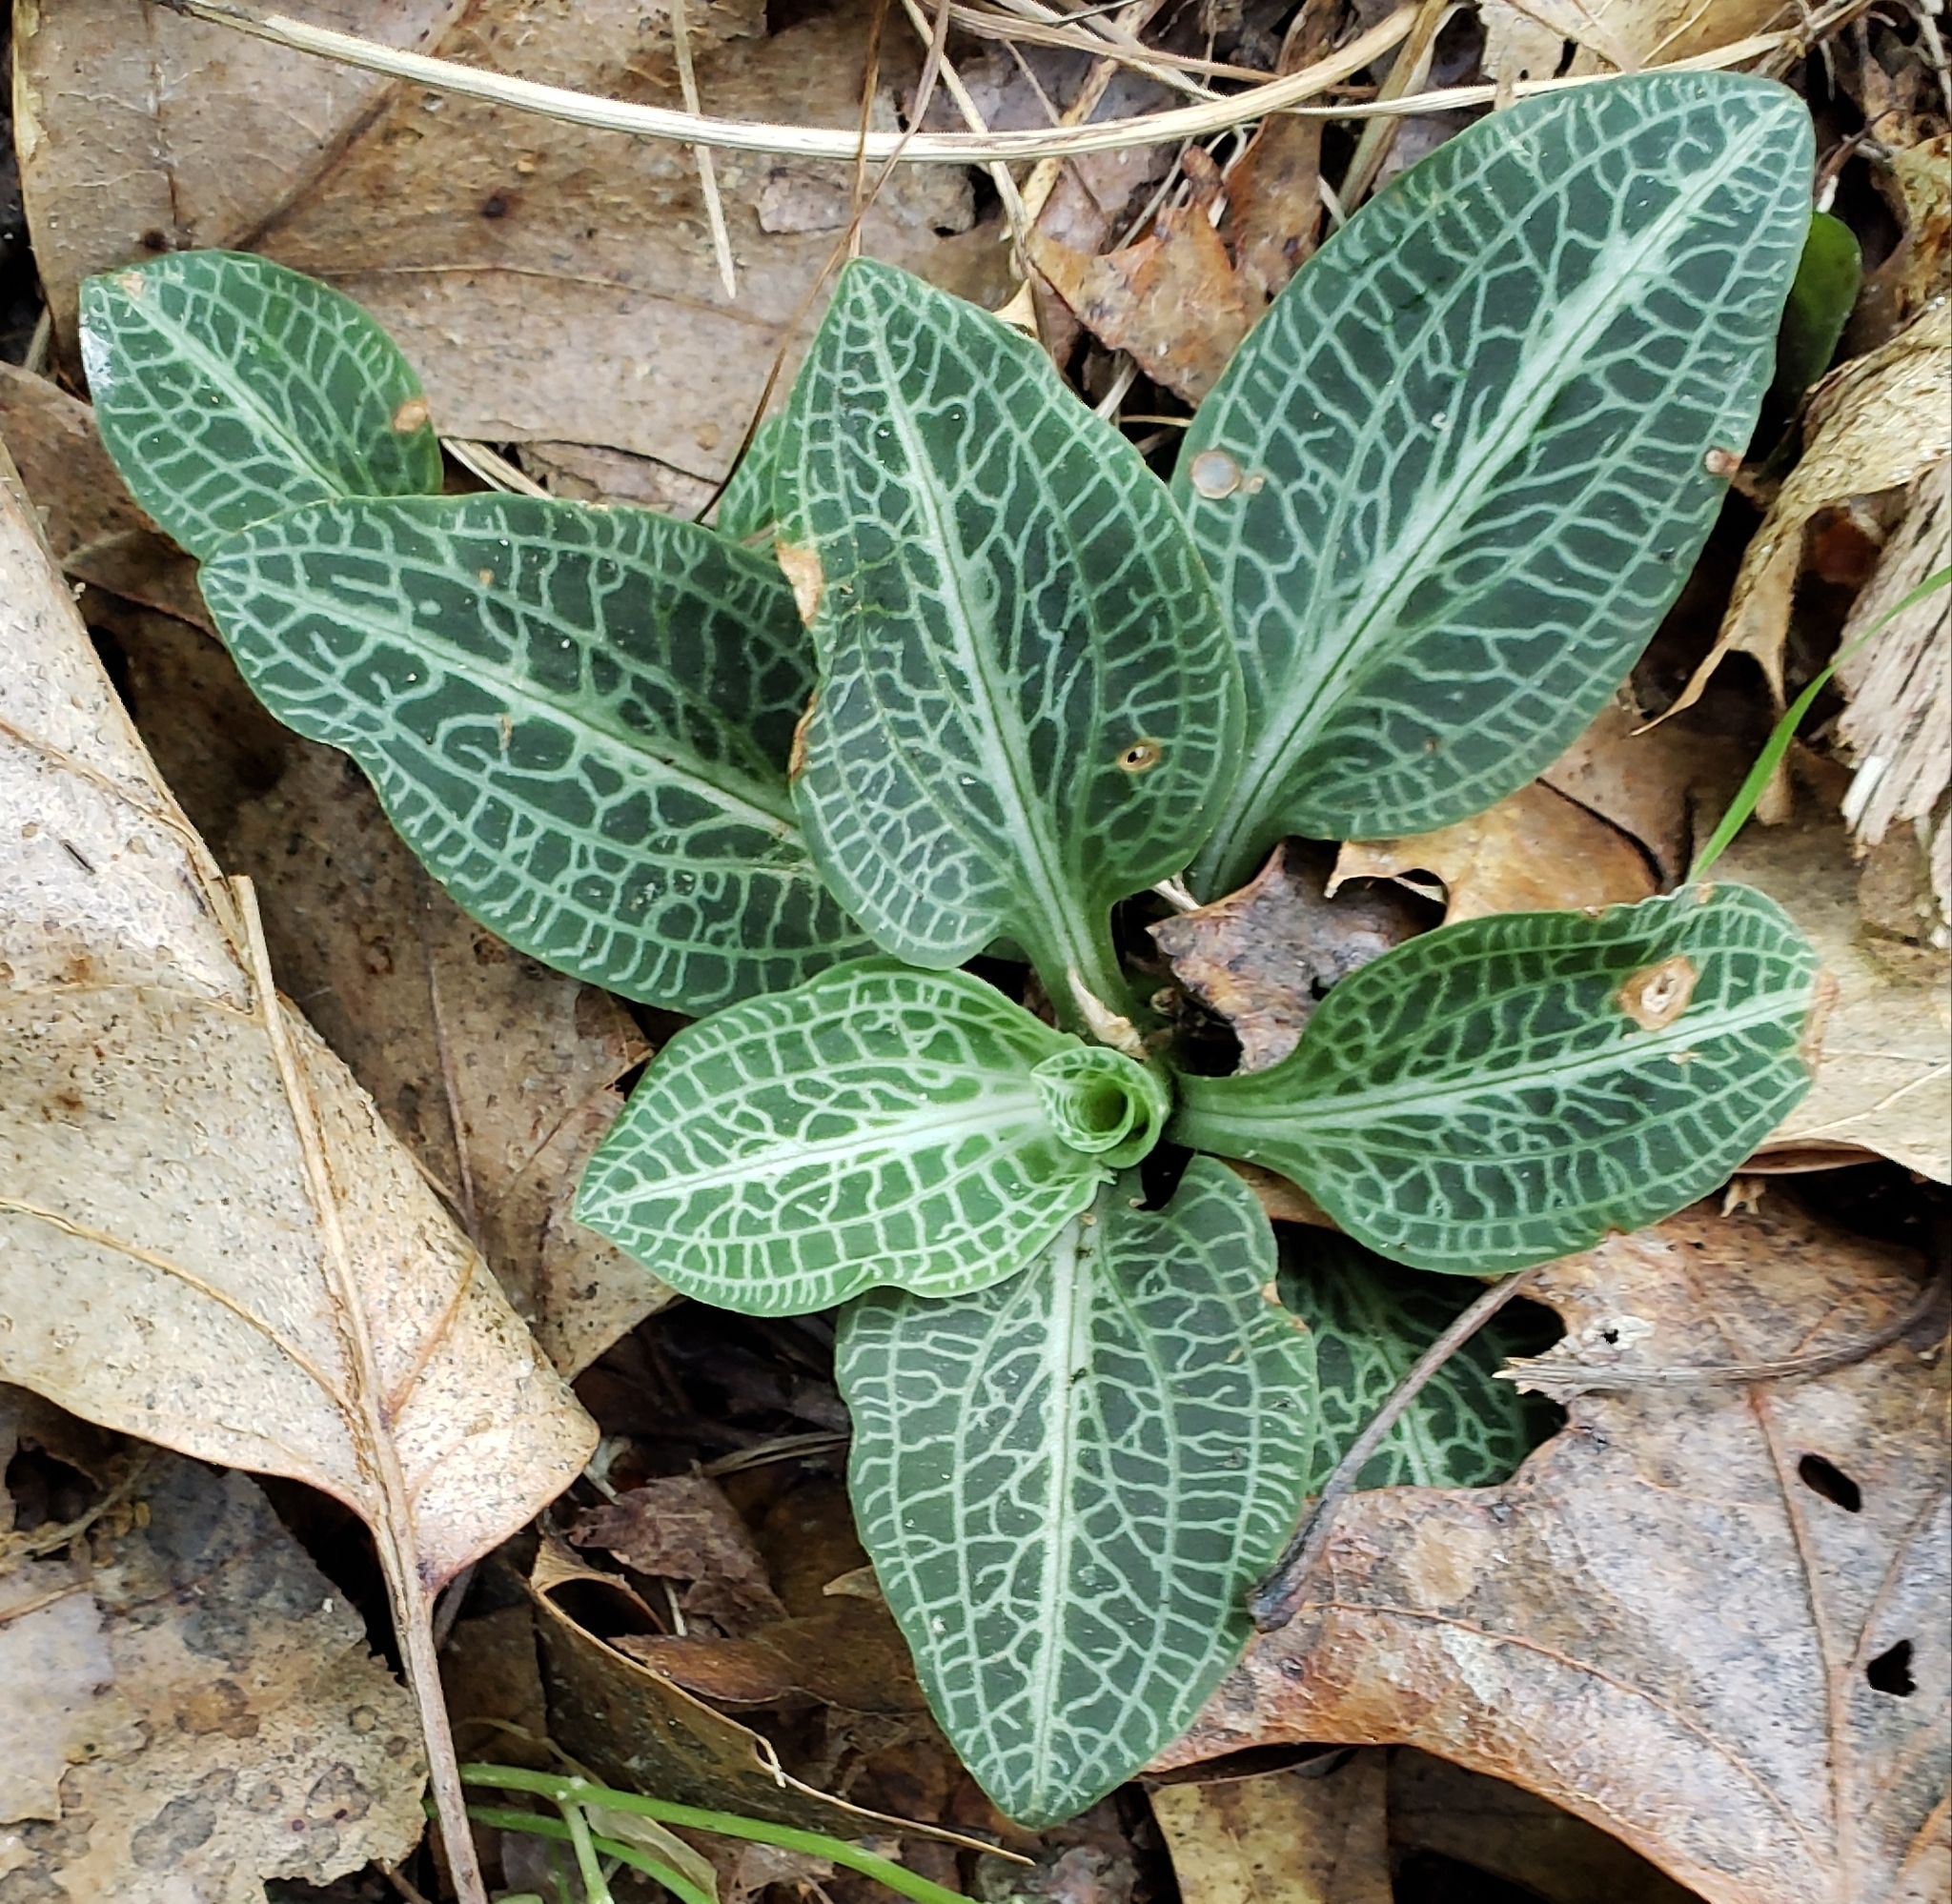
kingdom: Plantae
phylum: Tracheophyta
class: Liliopsida
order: Asparagales
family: Orchidaceae
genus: Goodyera
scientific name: Goodyera pubescens
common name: Downy rattlesnake-plantain
